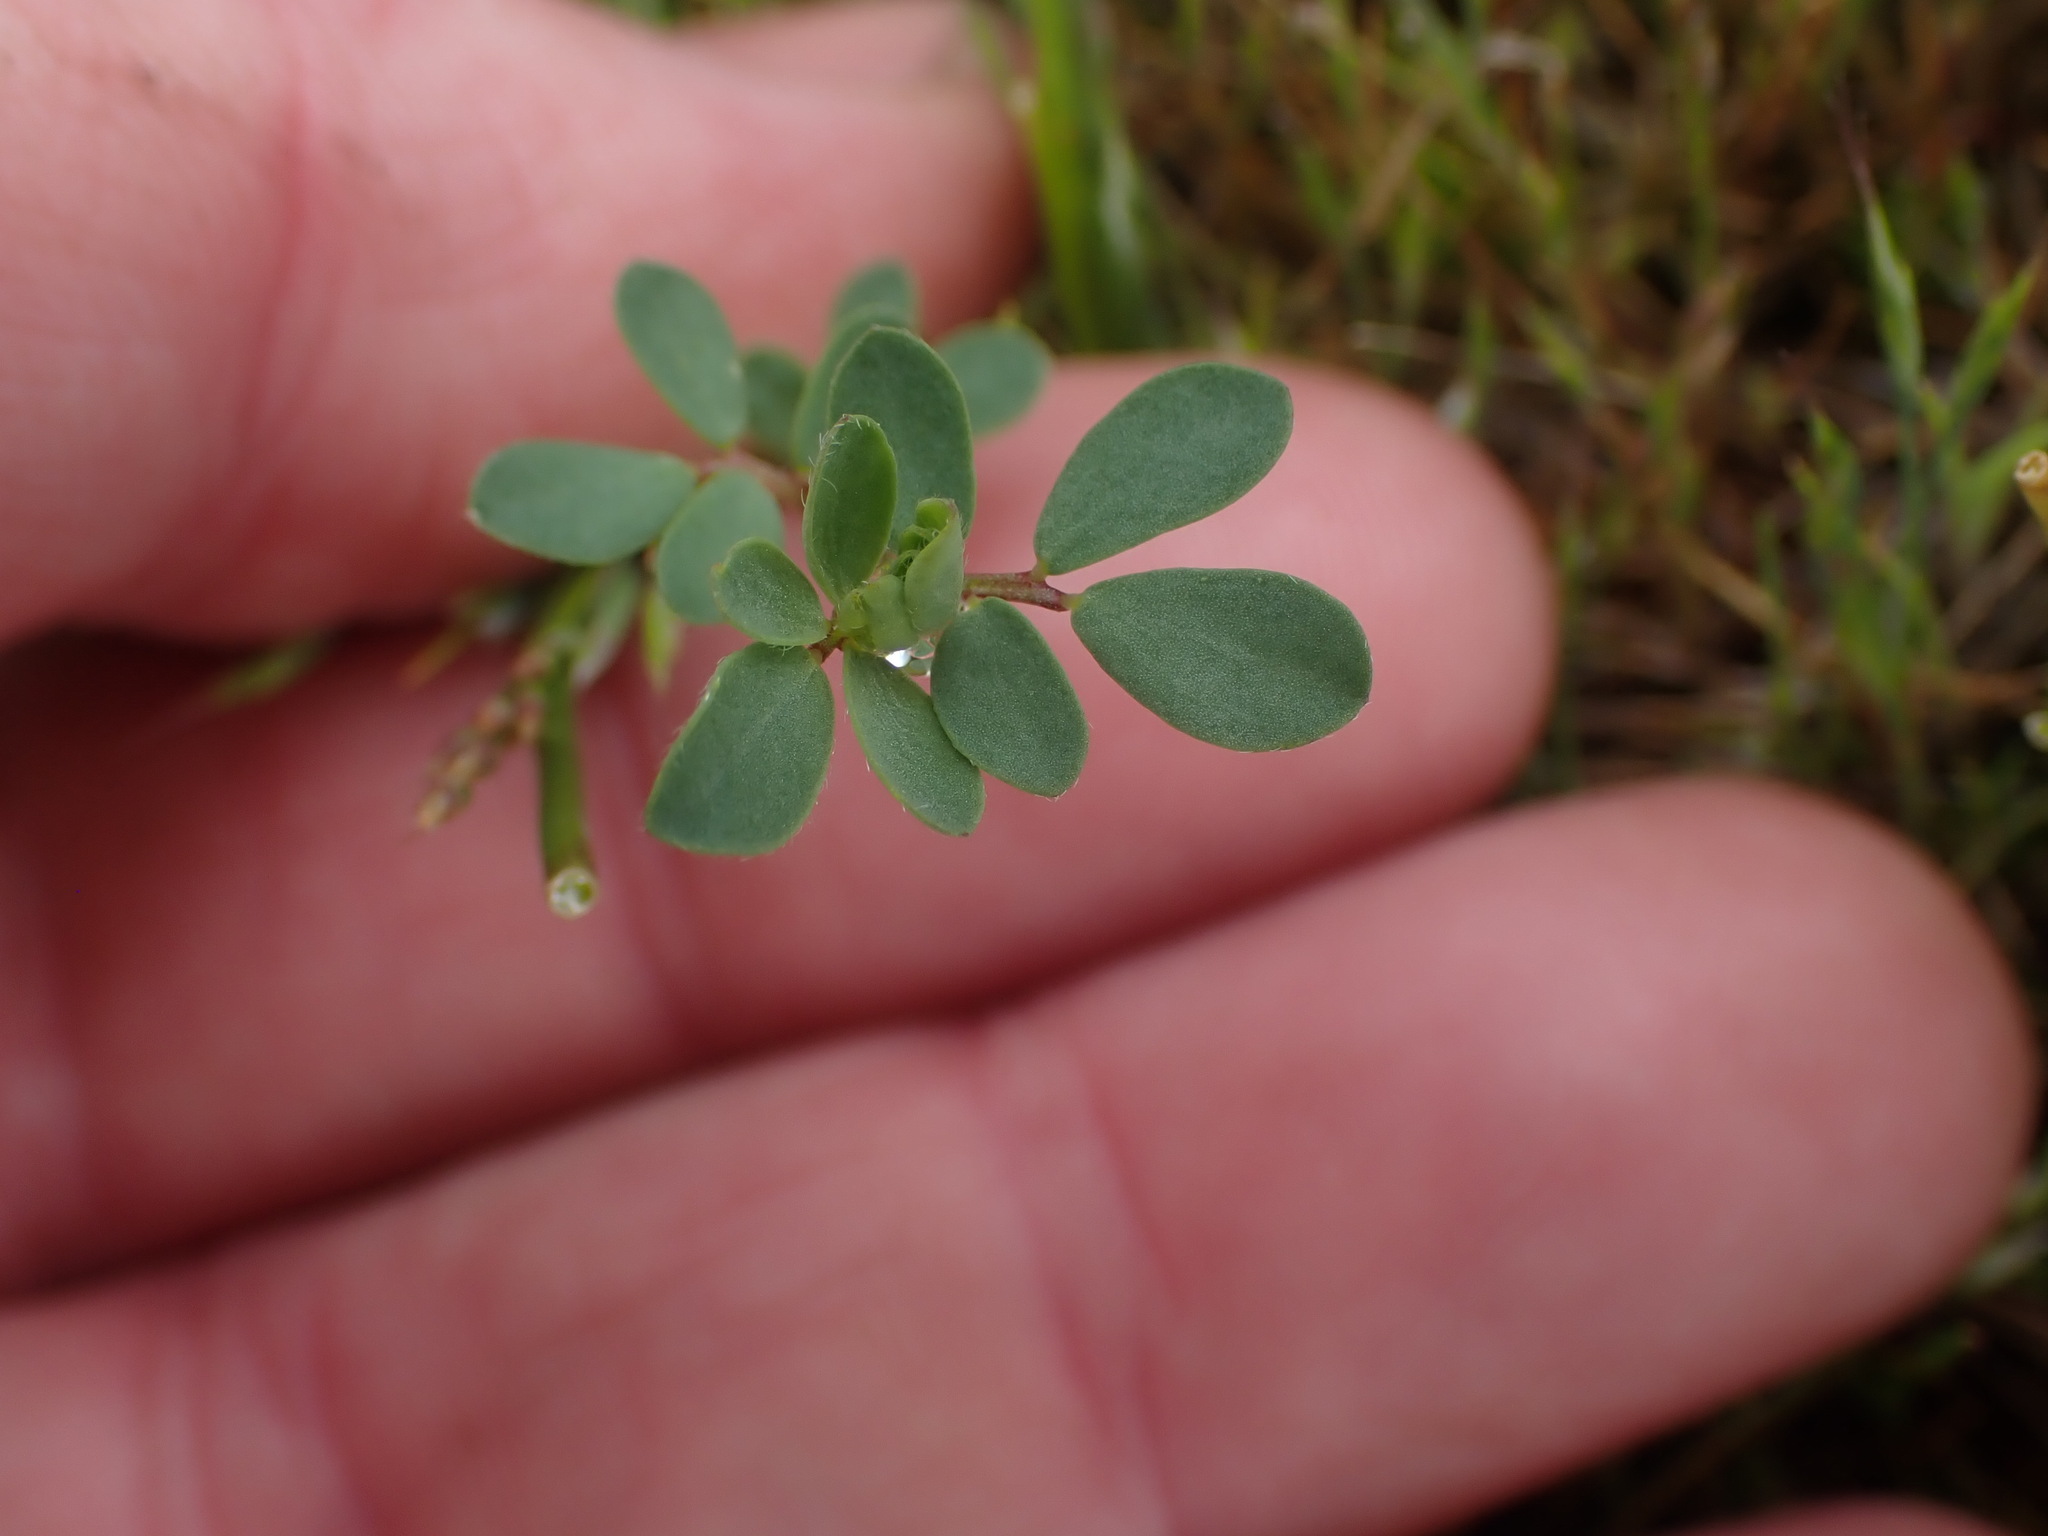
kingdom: Plantae
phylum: Tracheophyta
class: Magnoliopsida
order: Fabales
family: Fabaceae
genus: Acmispon
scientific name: Acmispon parviflorus
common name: Desert deer-vetch
